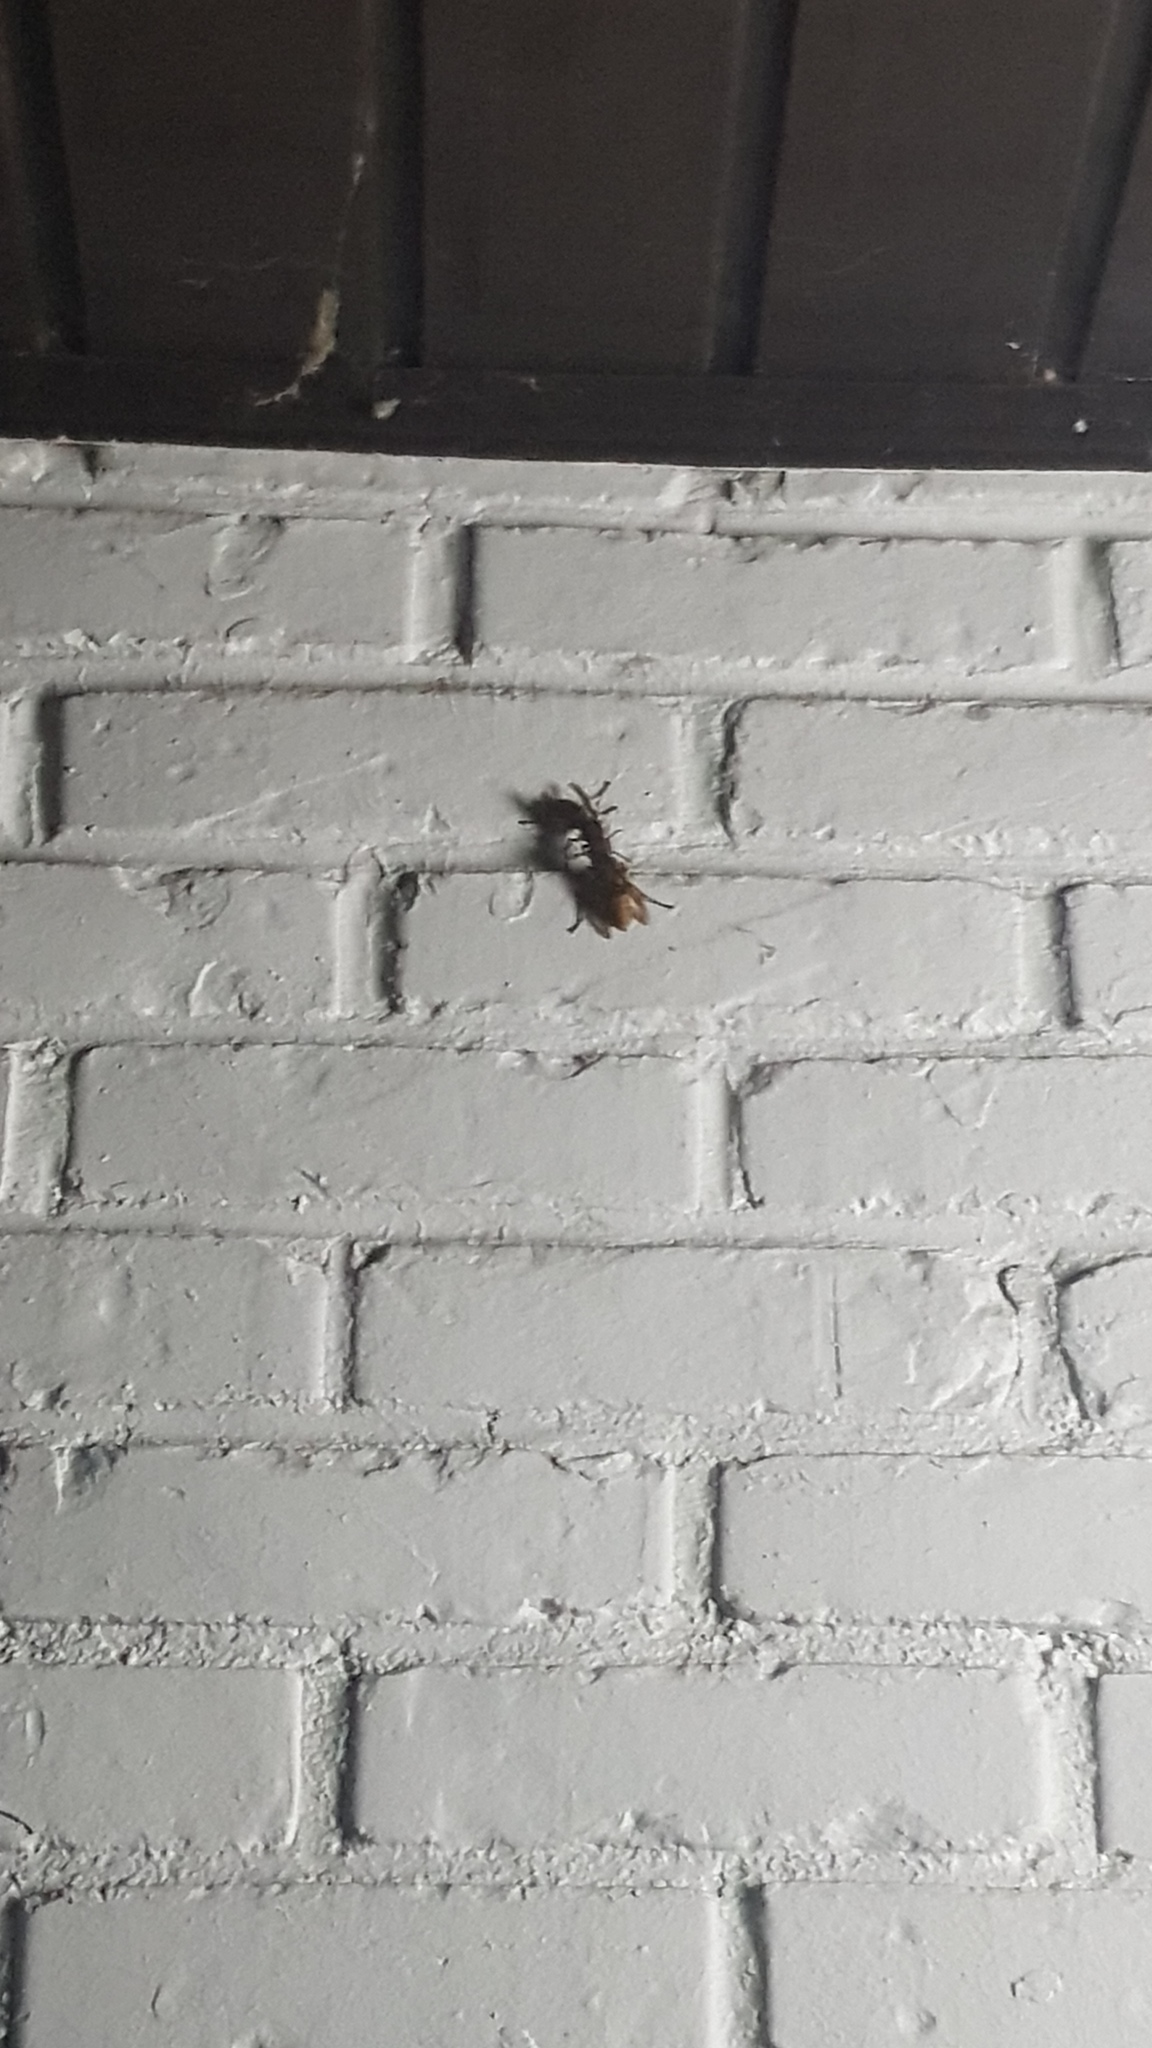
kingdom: Animalia
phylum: Arthropoda
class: Insecta
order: Hymenoptera
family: Vespidae
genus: Vespa
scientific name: Vespa crabro
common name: Hornet
